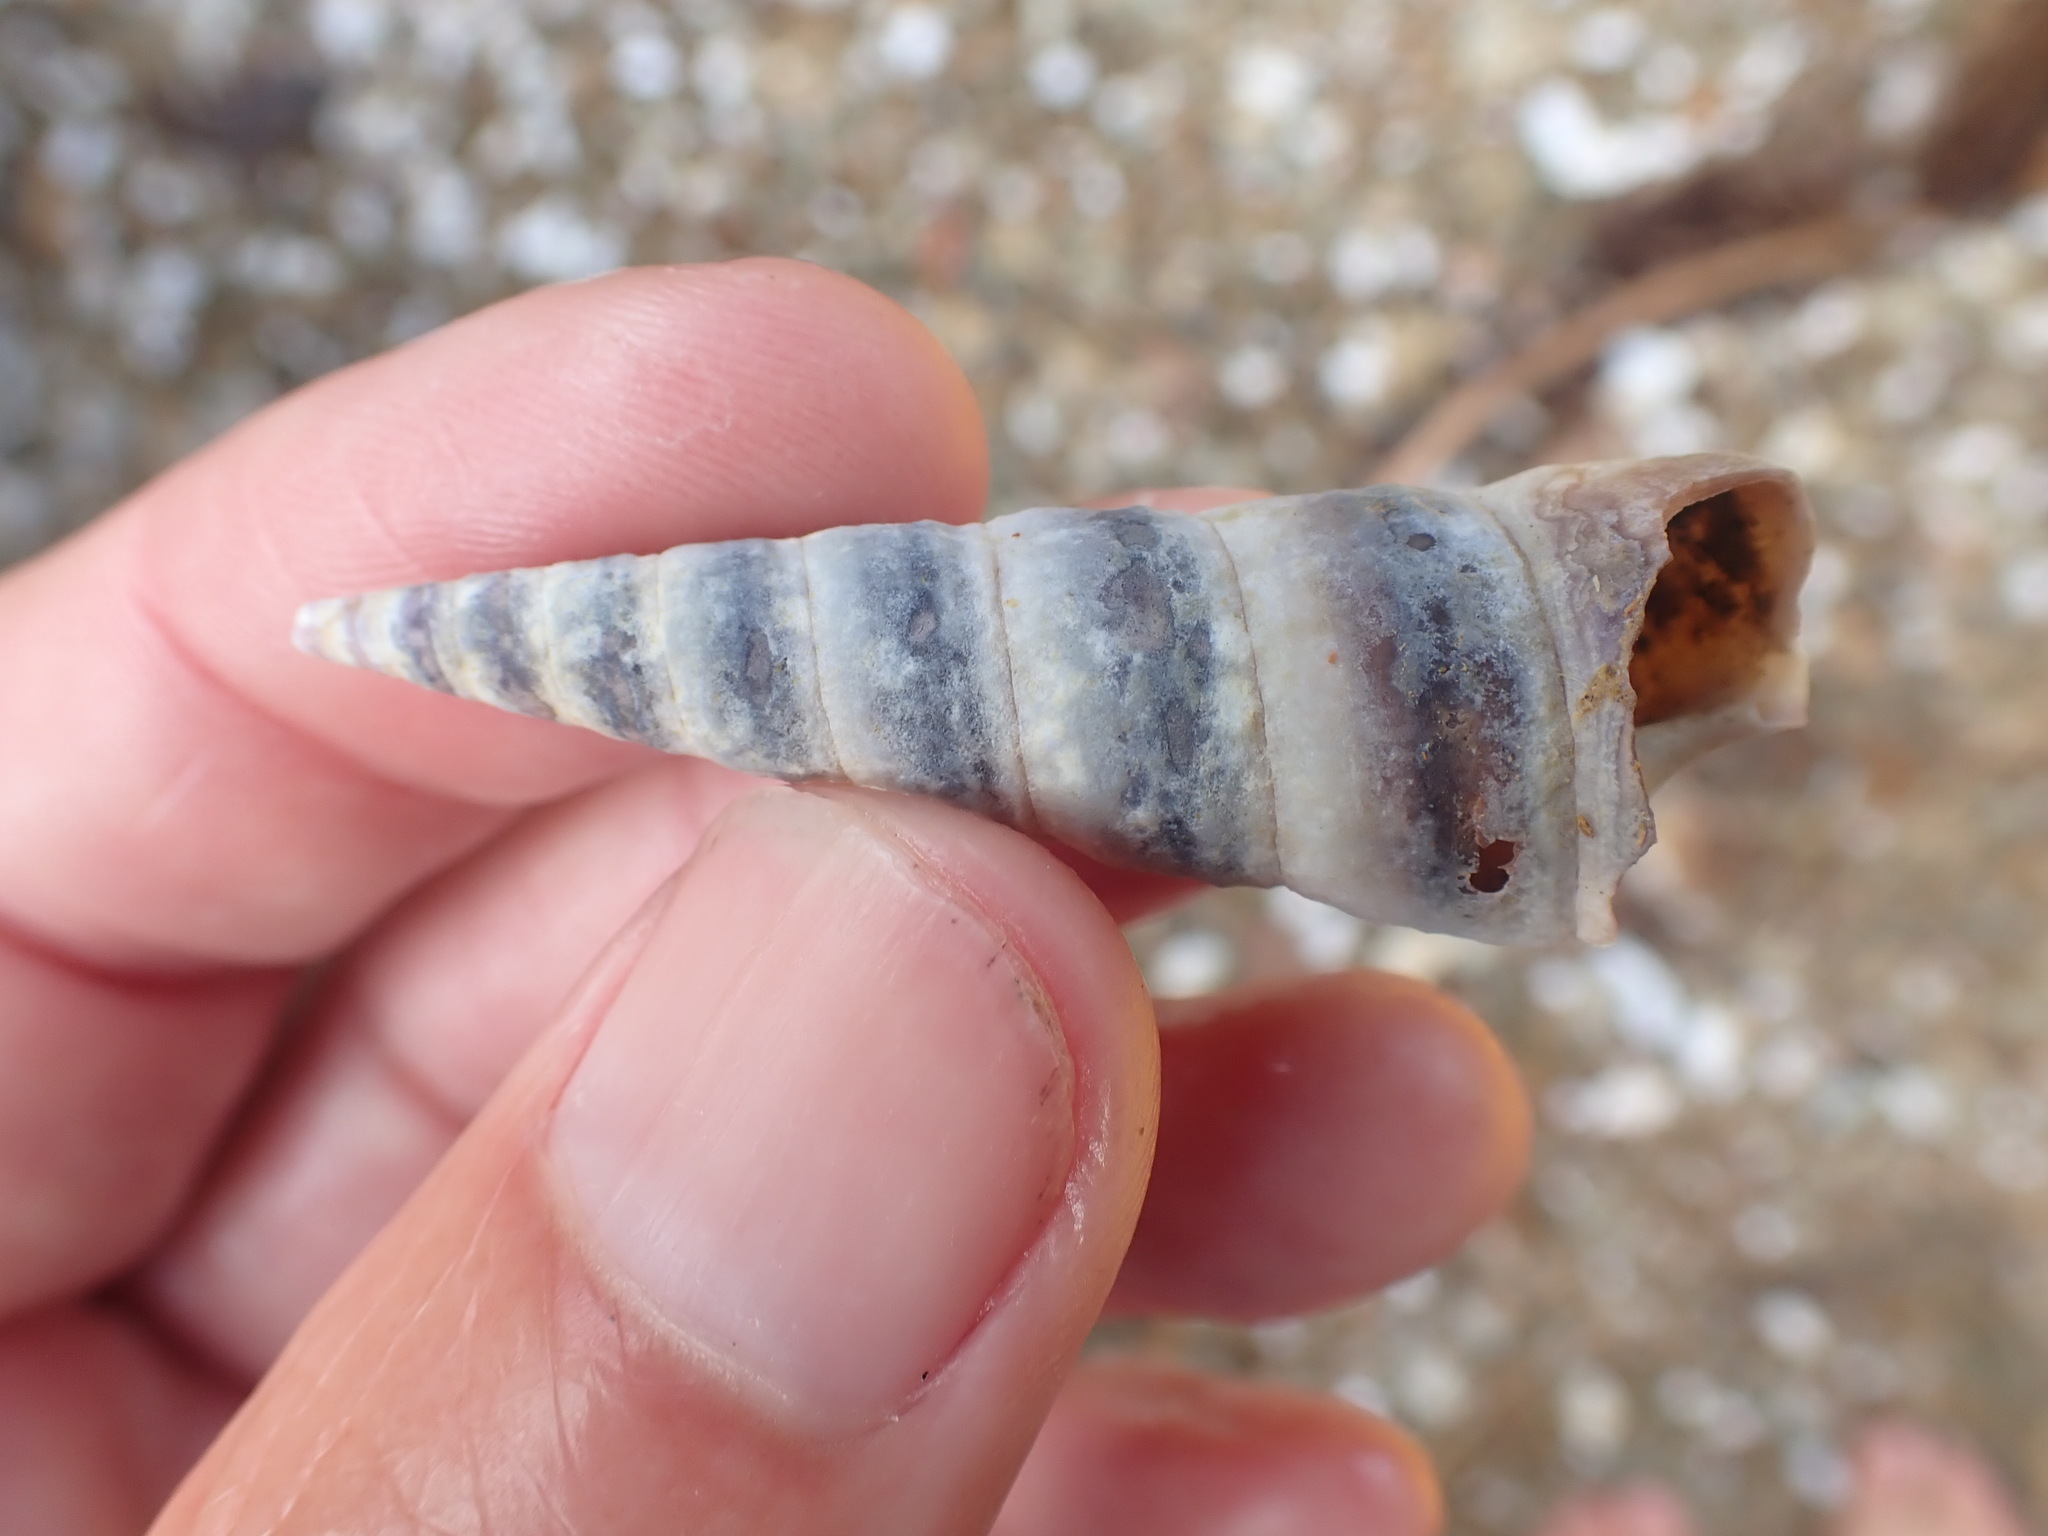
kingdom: Animalia
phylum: Mollusca
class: Gastropoda
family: Turritellidae
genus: Maoricolpus
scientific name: Maoricolpus roseus
